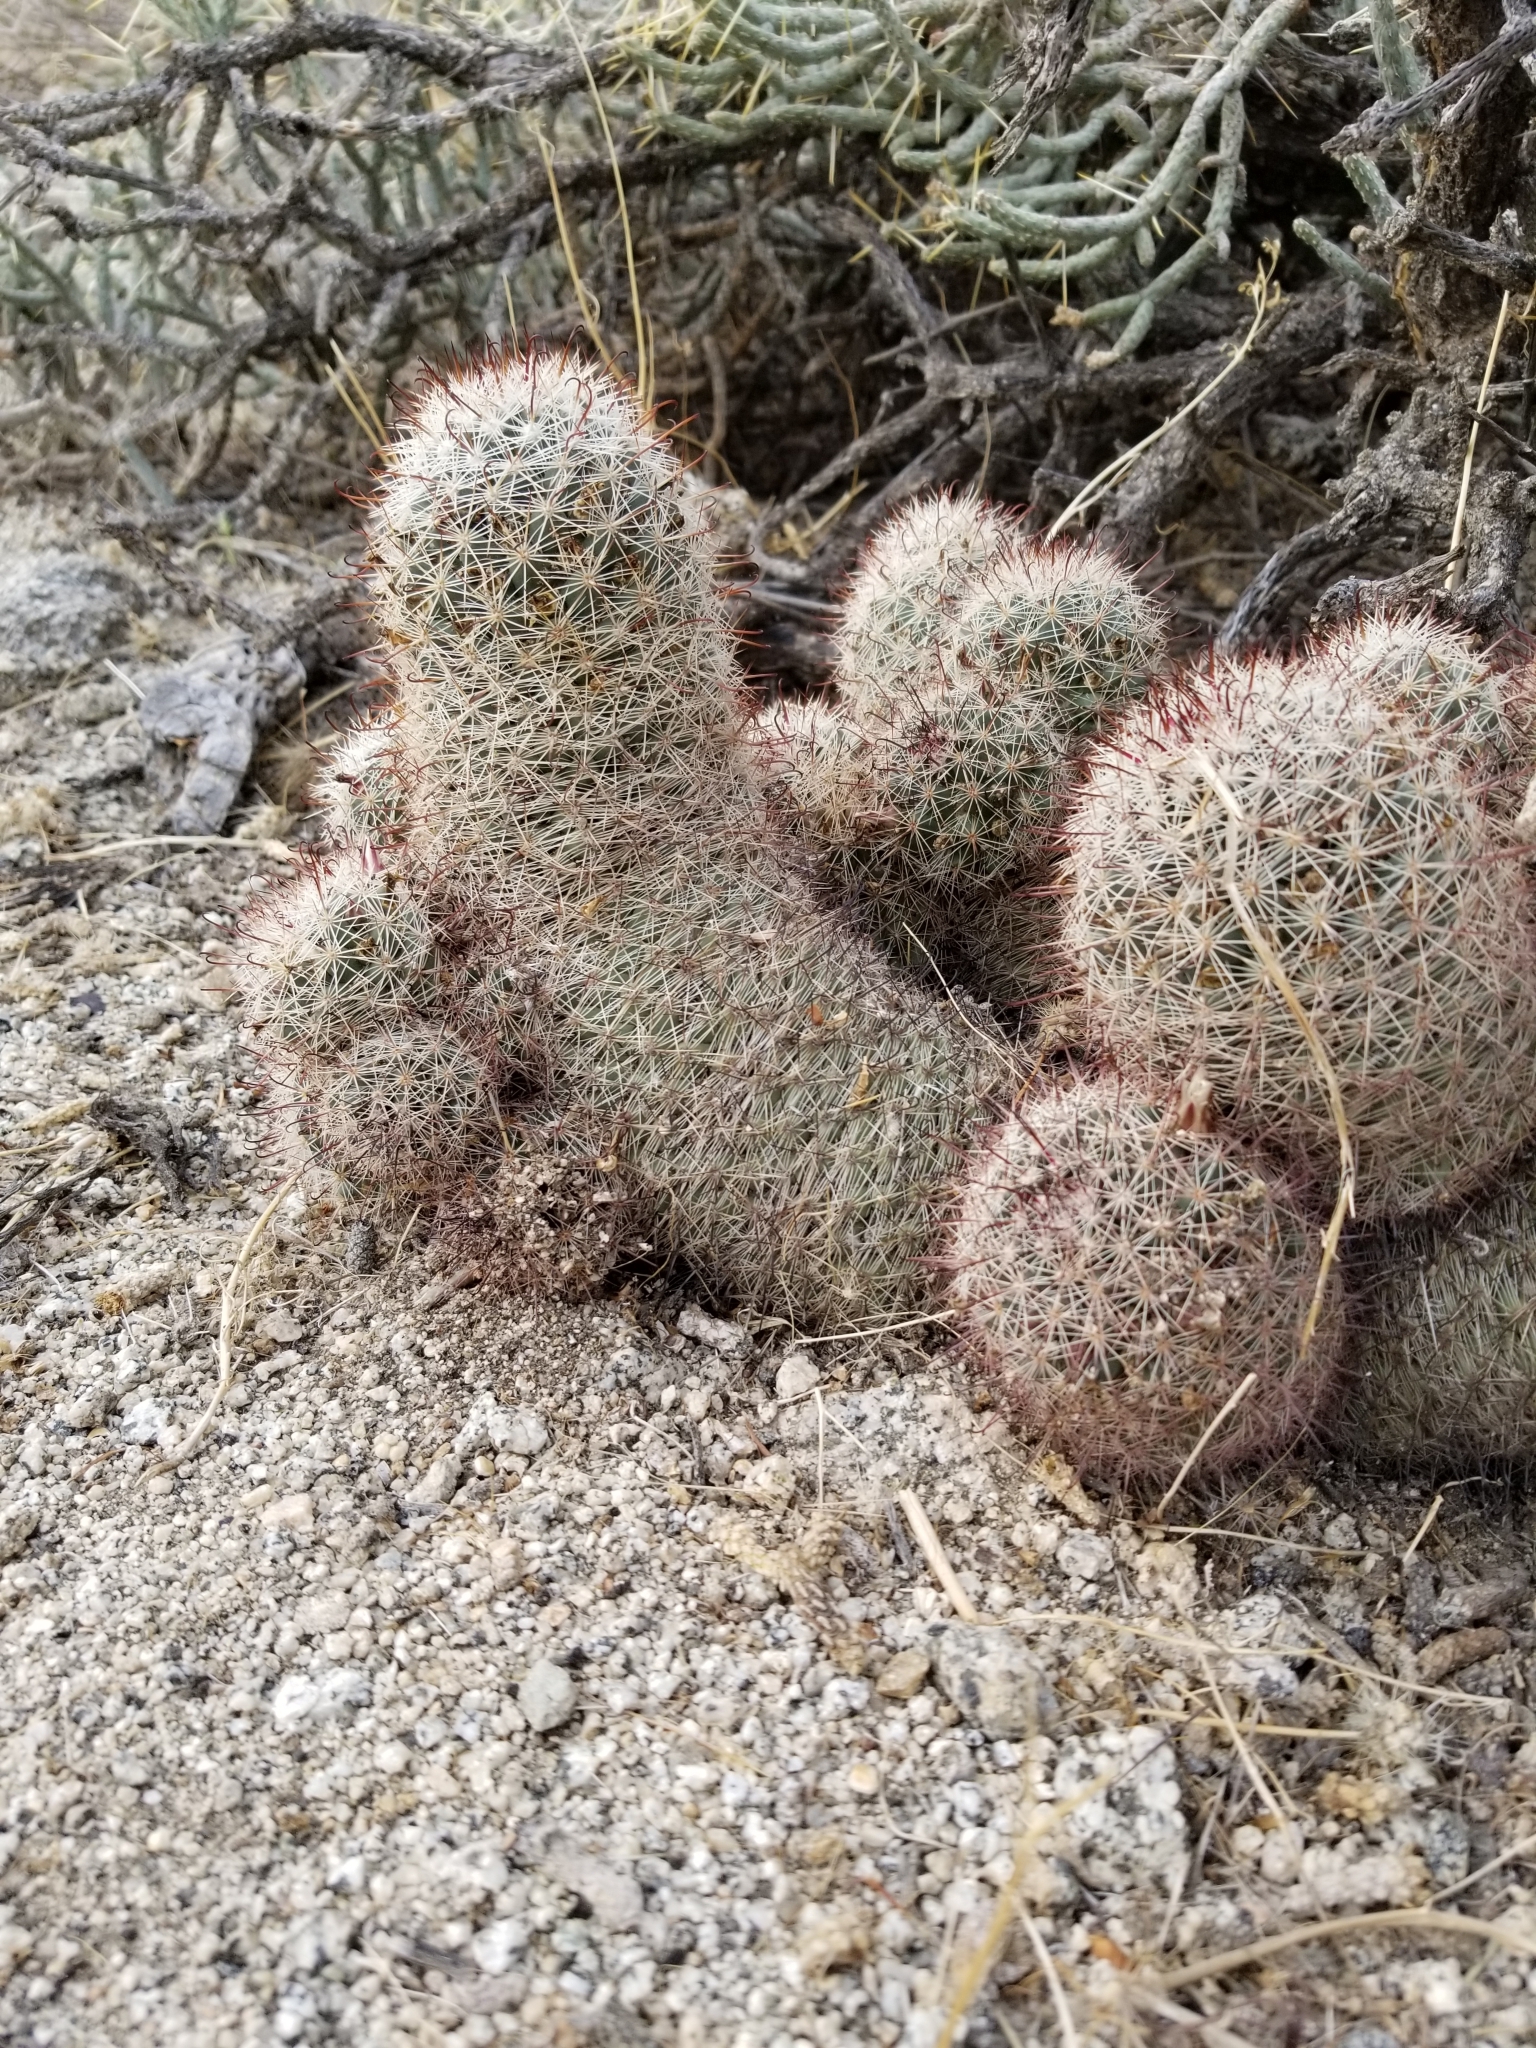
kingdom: Plantae
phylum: Tracheophyta
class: Magnoliopsida
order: Caryophyllales
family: Cactaceae
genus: Cochemiea
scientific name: Cochemiea dioica
